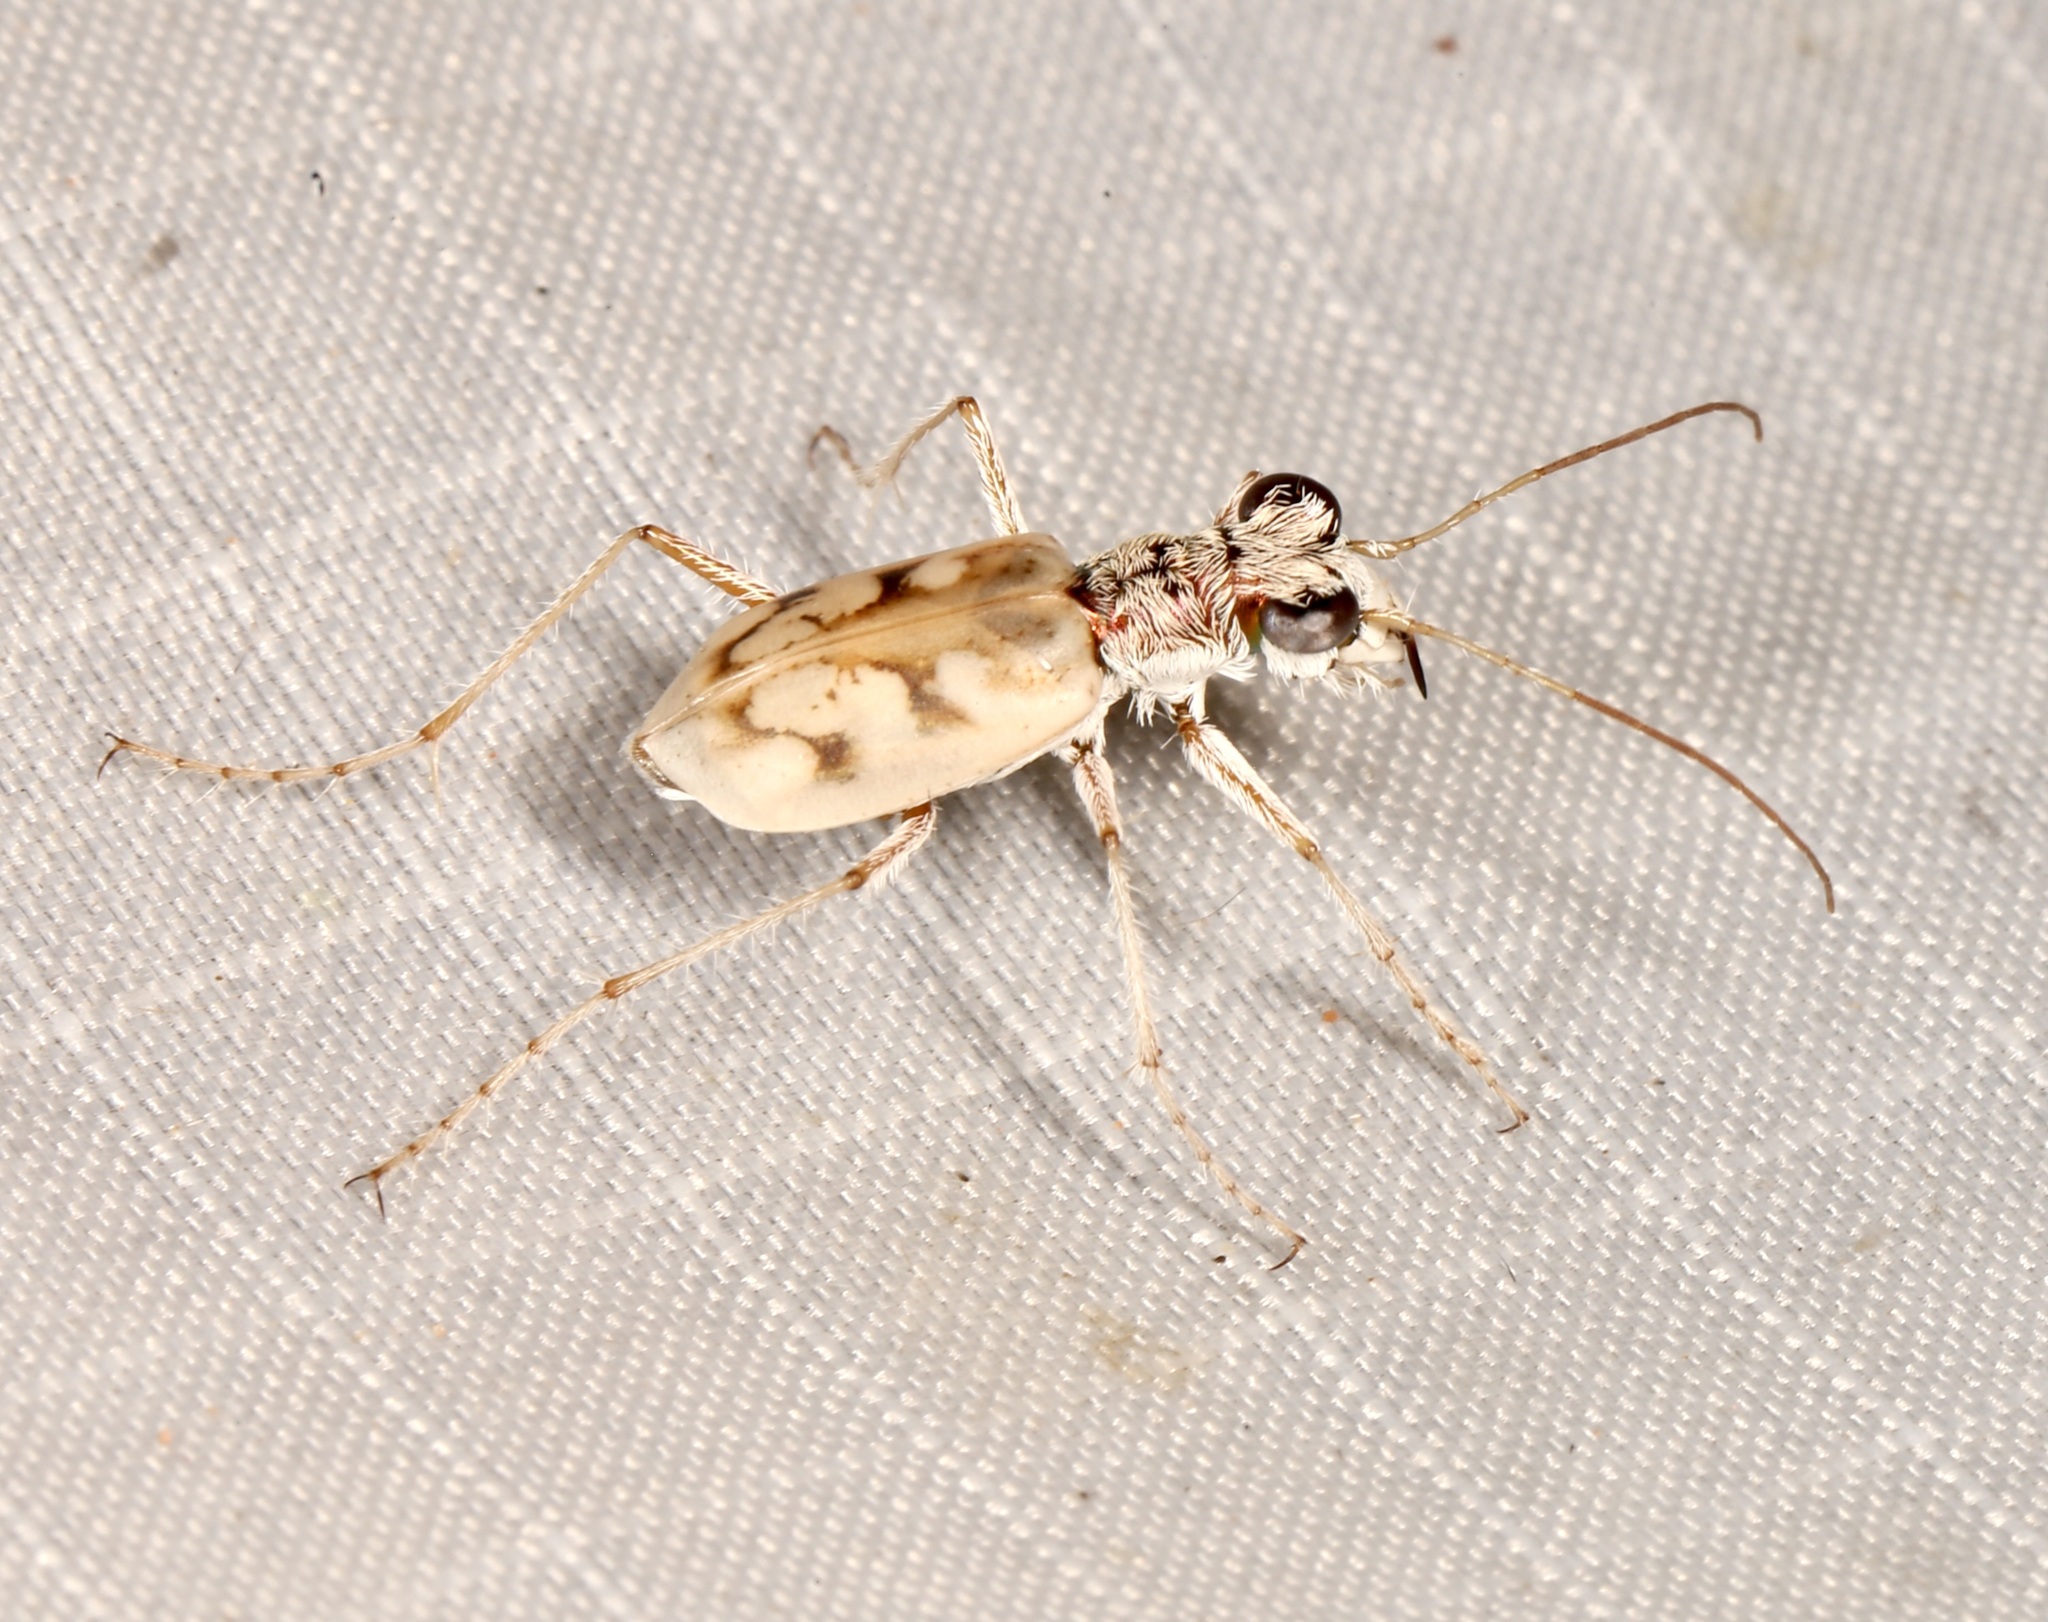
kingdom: Animalia
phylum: Arthropoda
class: Insecta
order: Coleoptera
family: Carabidae
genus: Ellipsoptera
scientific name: Ellipsoptera lepida
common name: Ghost tiger beetle
